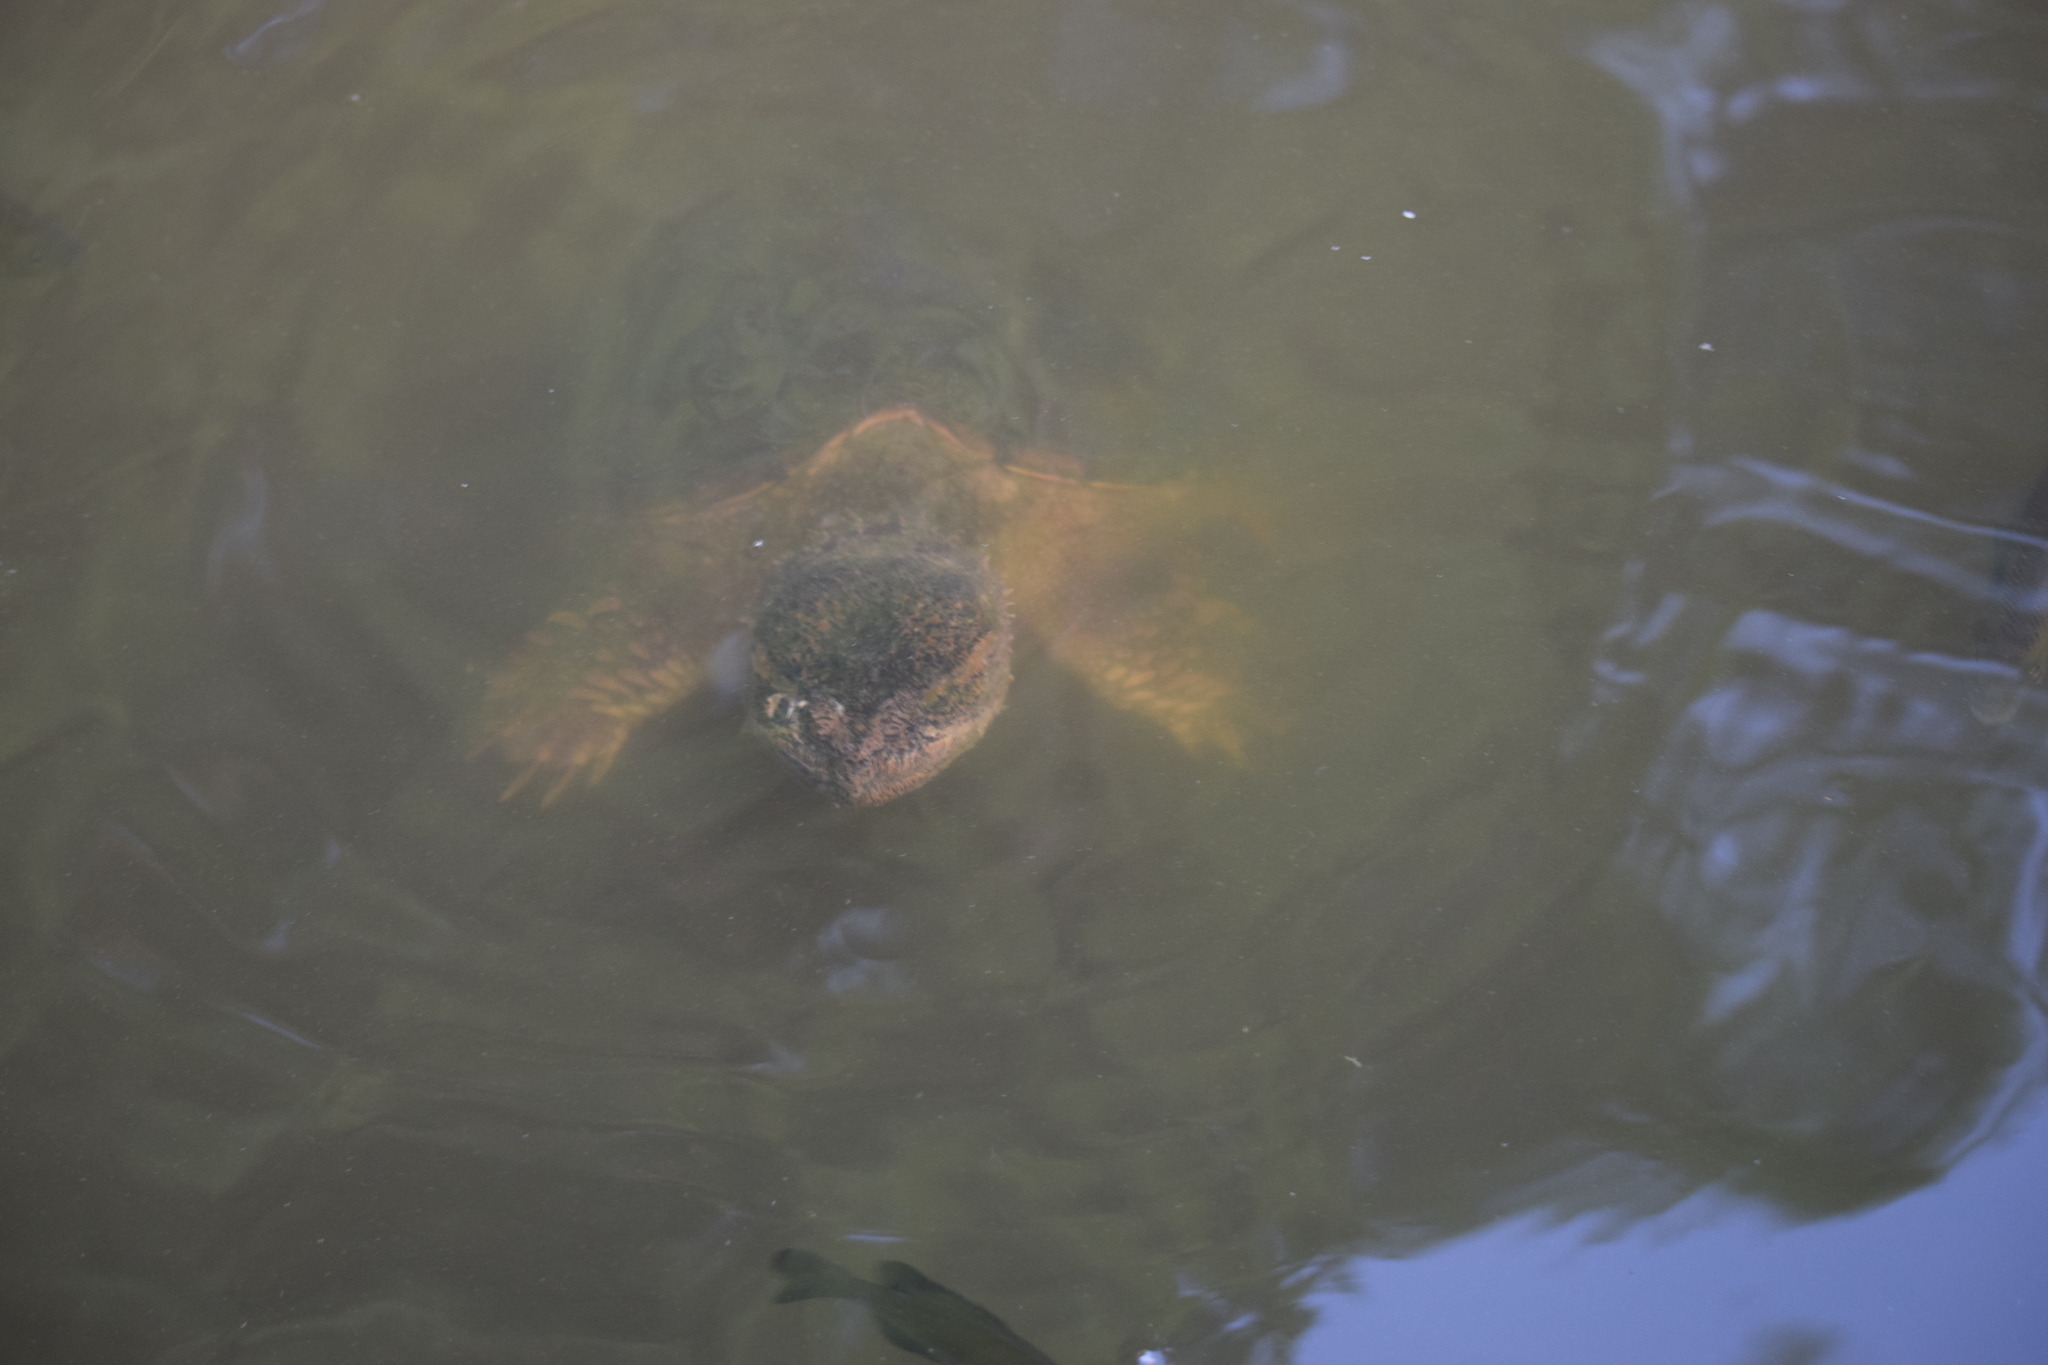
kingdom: Animalia
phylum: Chordata
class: Testudines
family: Chelydridae
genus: Chelydra
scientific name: Chelydra serpentina
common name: Common snapping turtle
